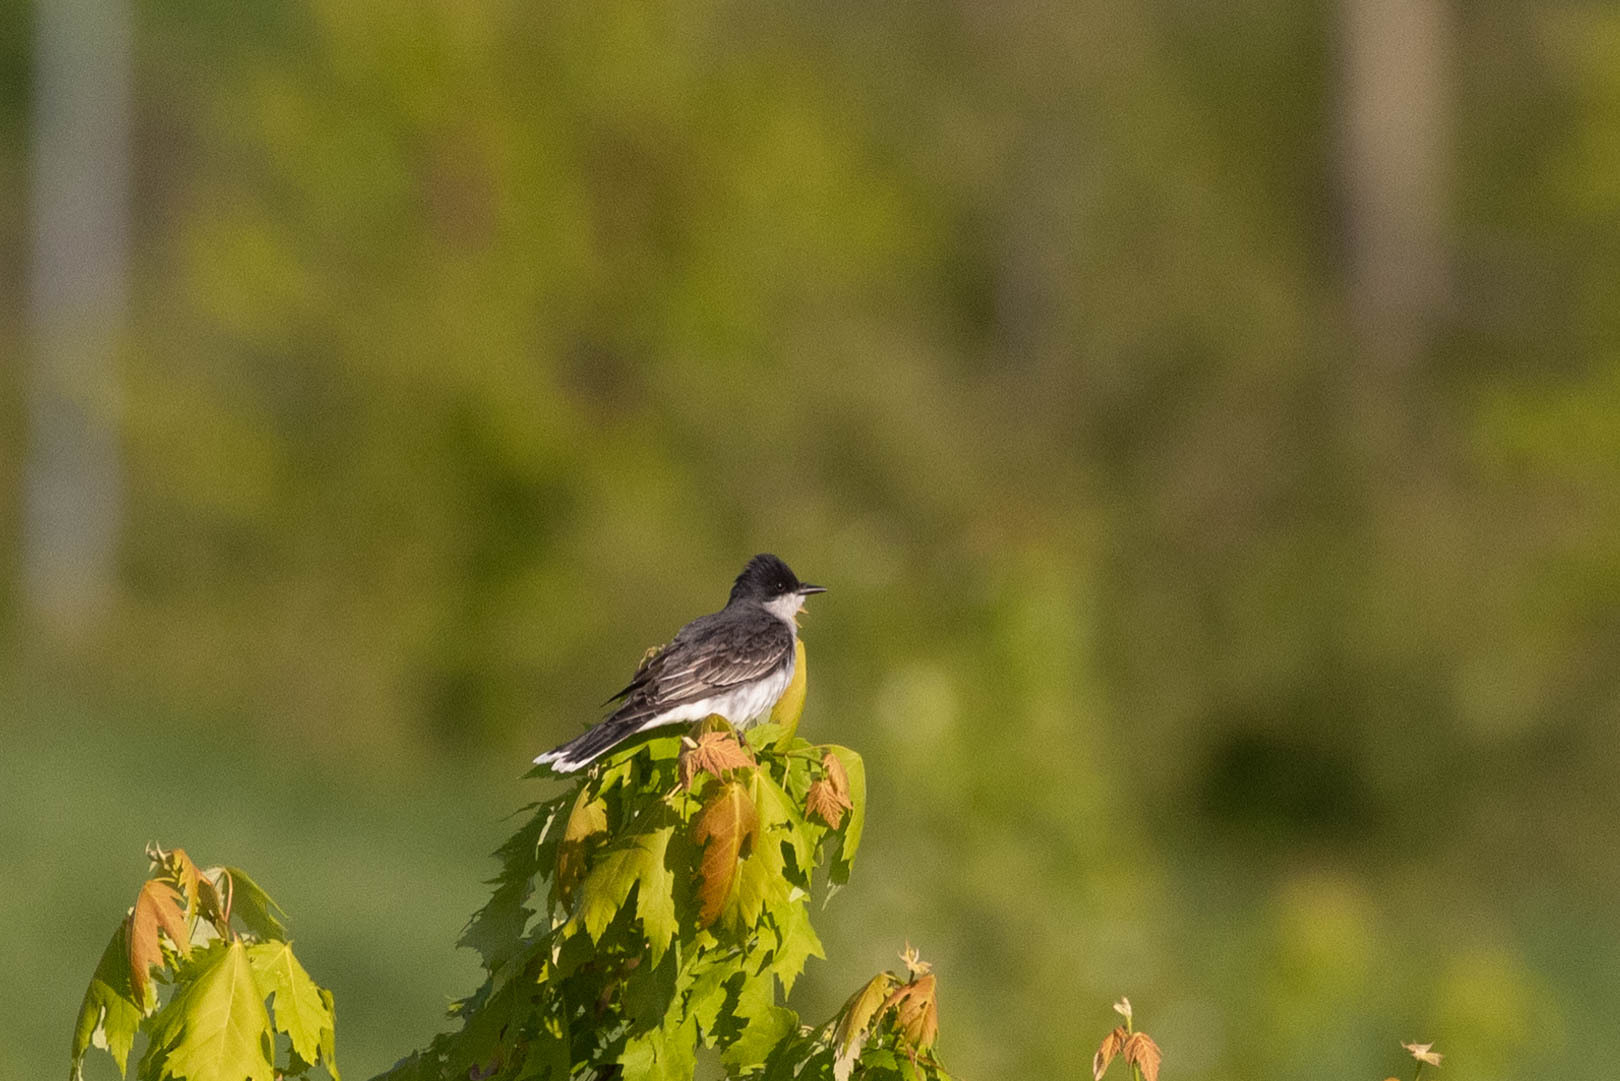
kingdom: Animalia
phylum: Chordata
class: Aves
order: Passeriformes
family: Tyrannidae
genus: Tyrannus
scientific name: Tyrannus tyrannus
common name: Eastern kingbird
